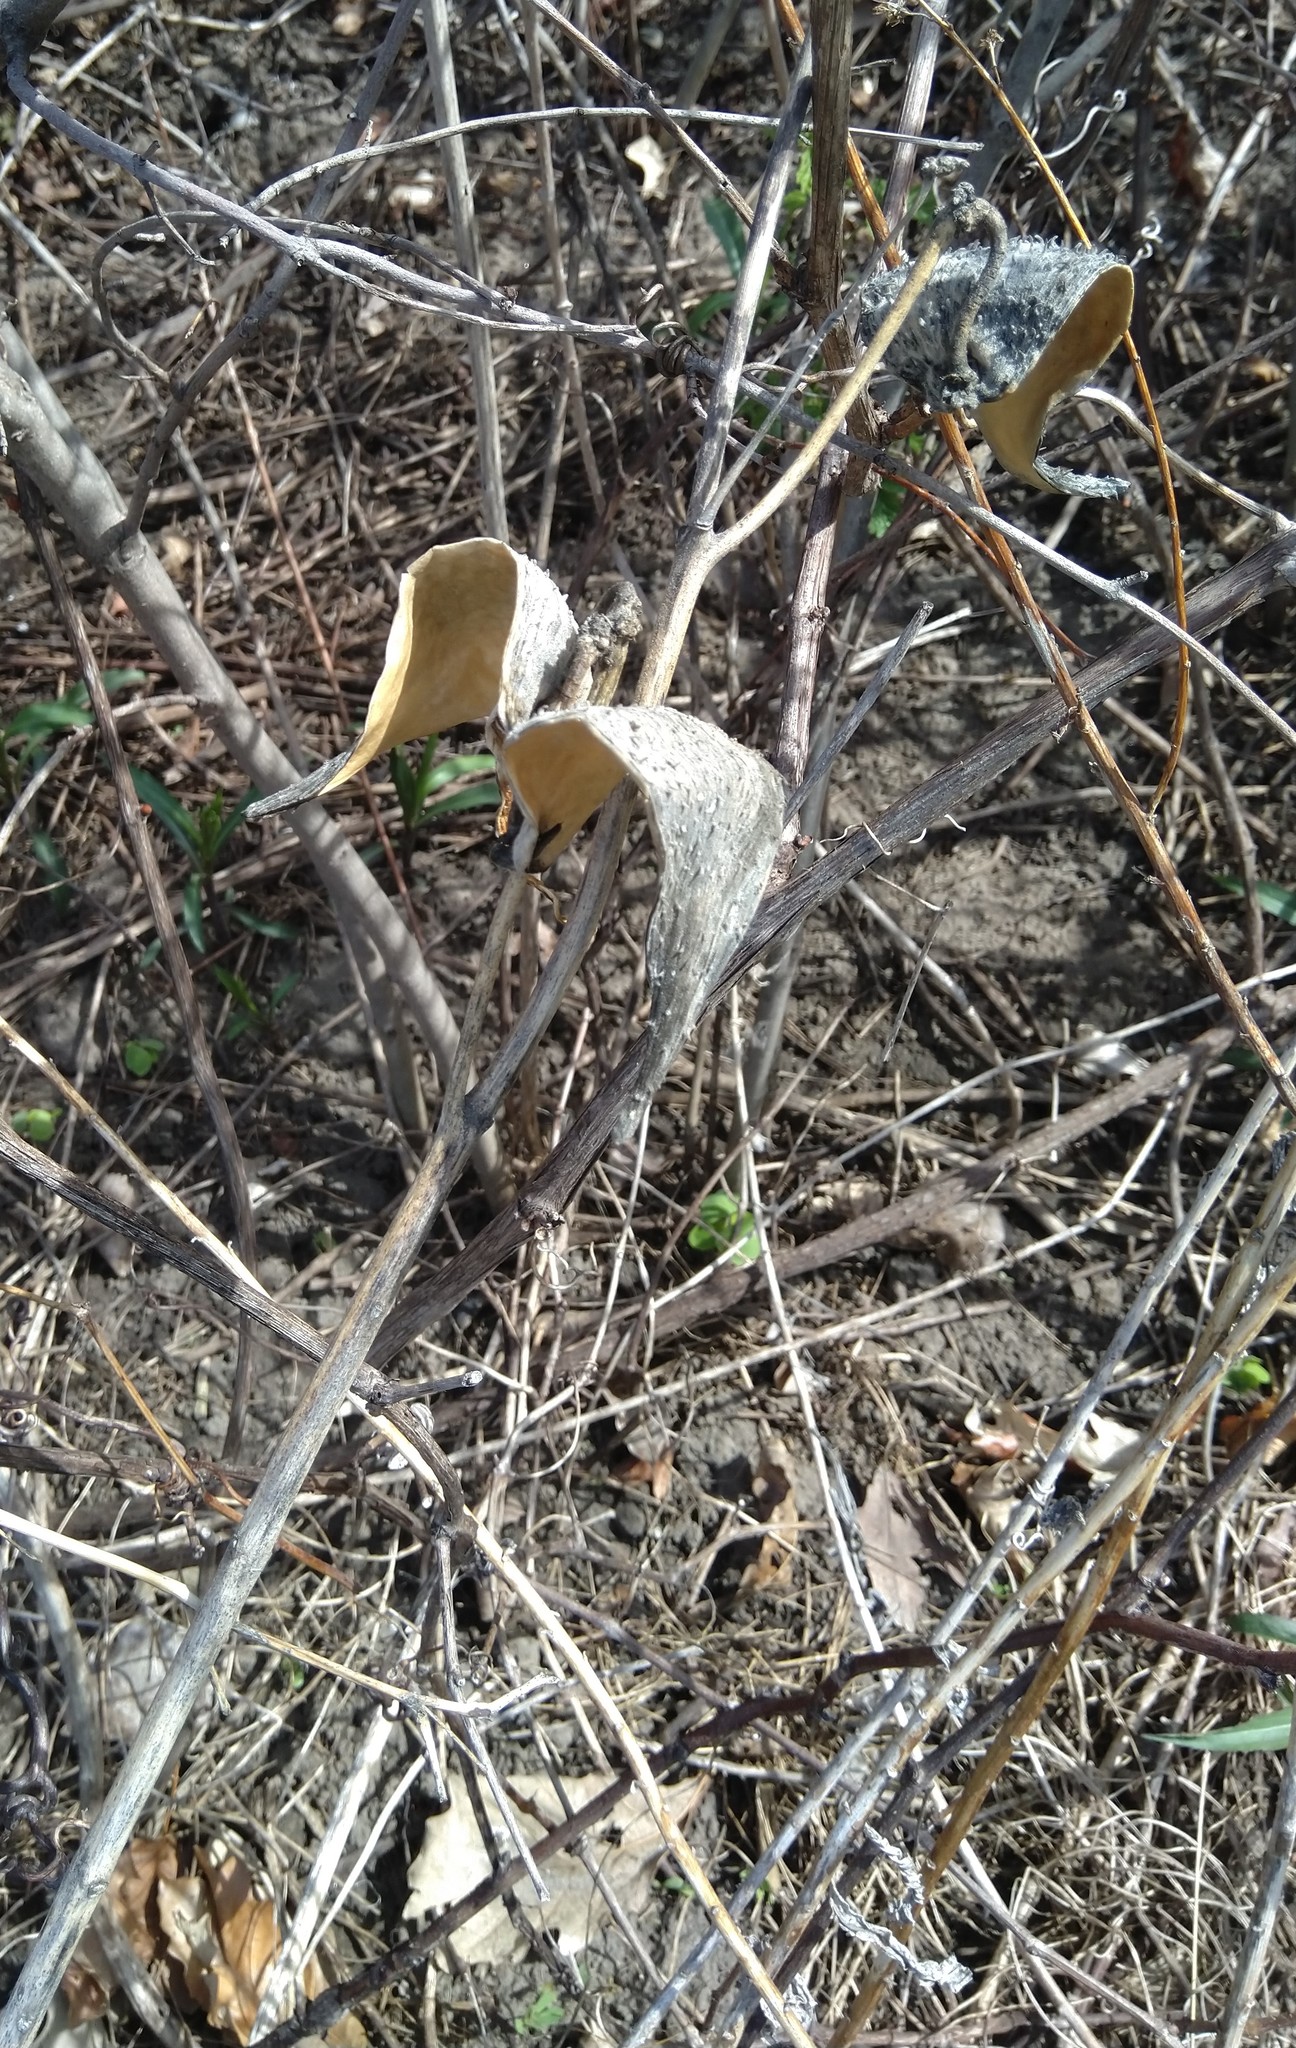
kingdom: Plantae
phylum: Tracheophyta
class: Magnoliopsida
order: Gentianales
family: Apocynaceae
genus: Asclepias
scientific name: Asclepias syriaca
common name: Common milkweed
